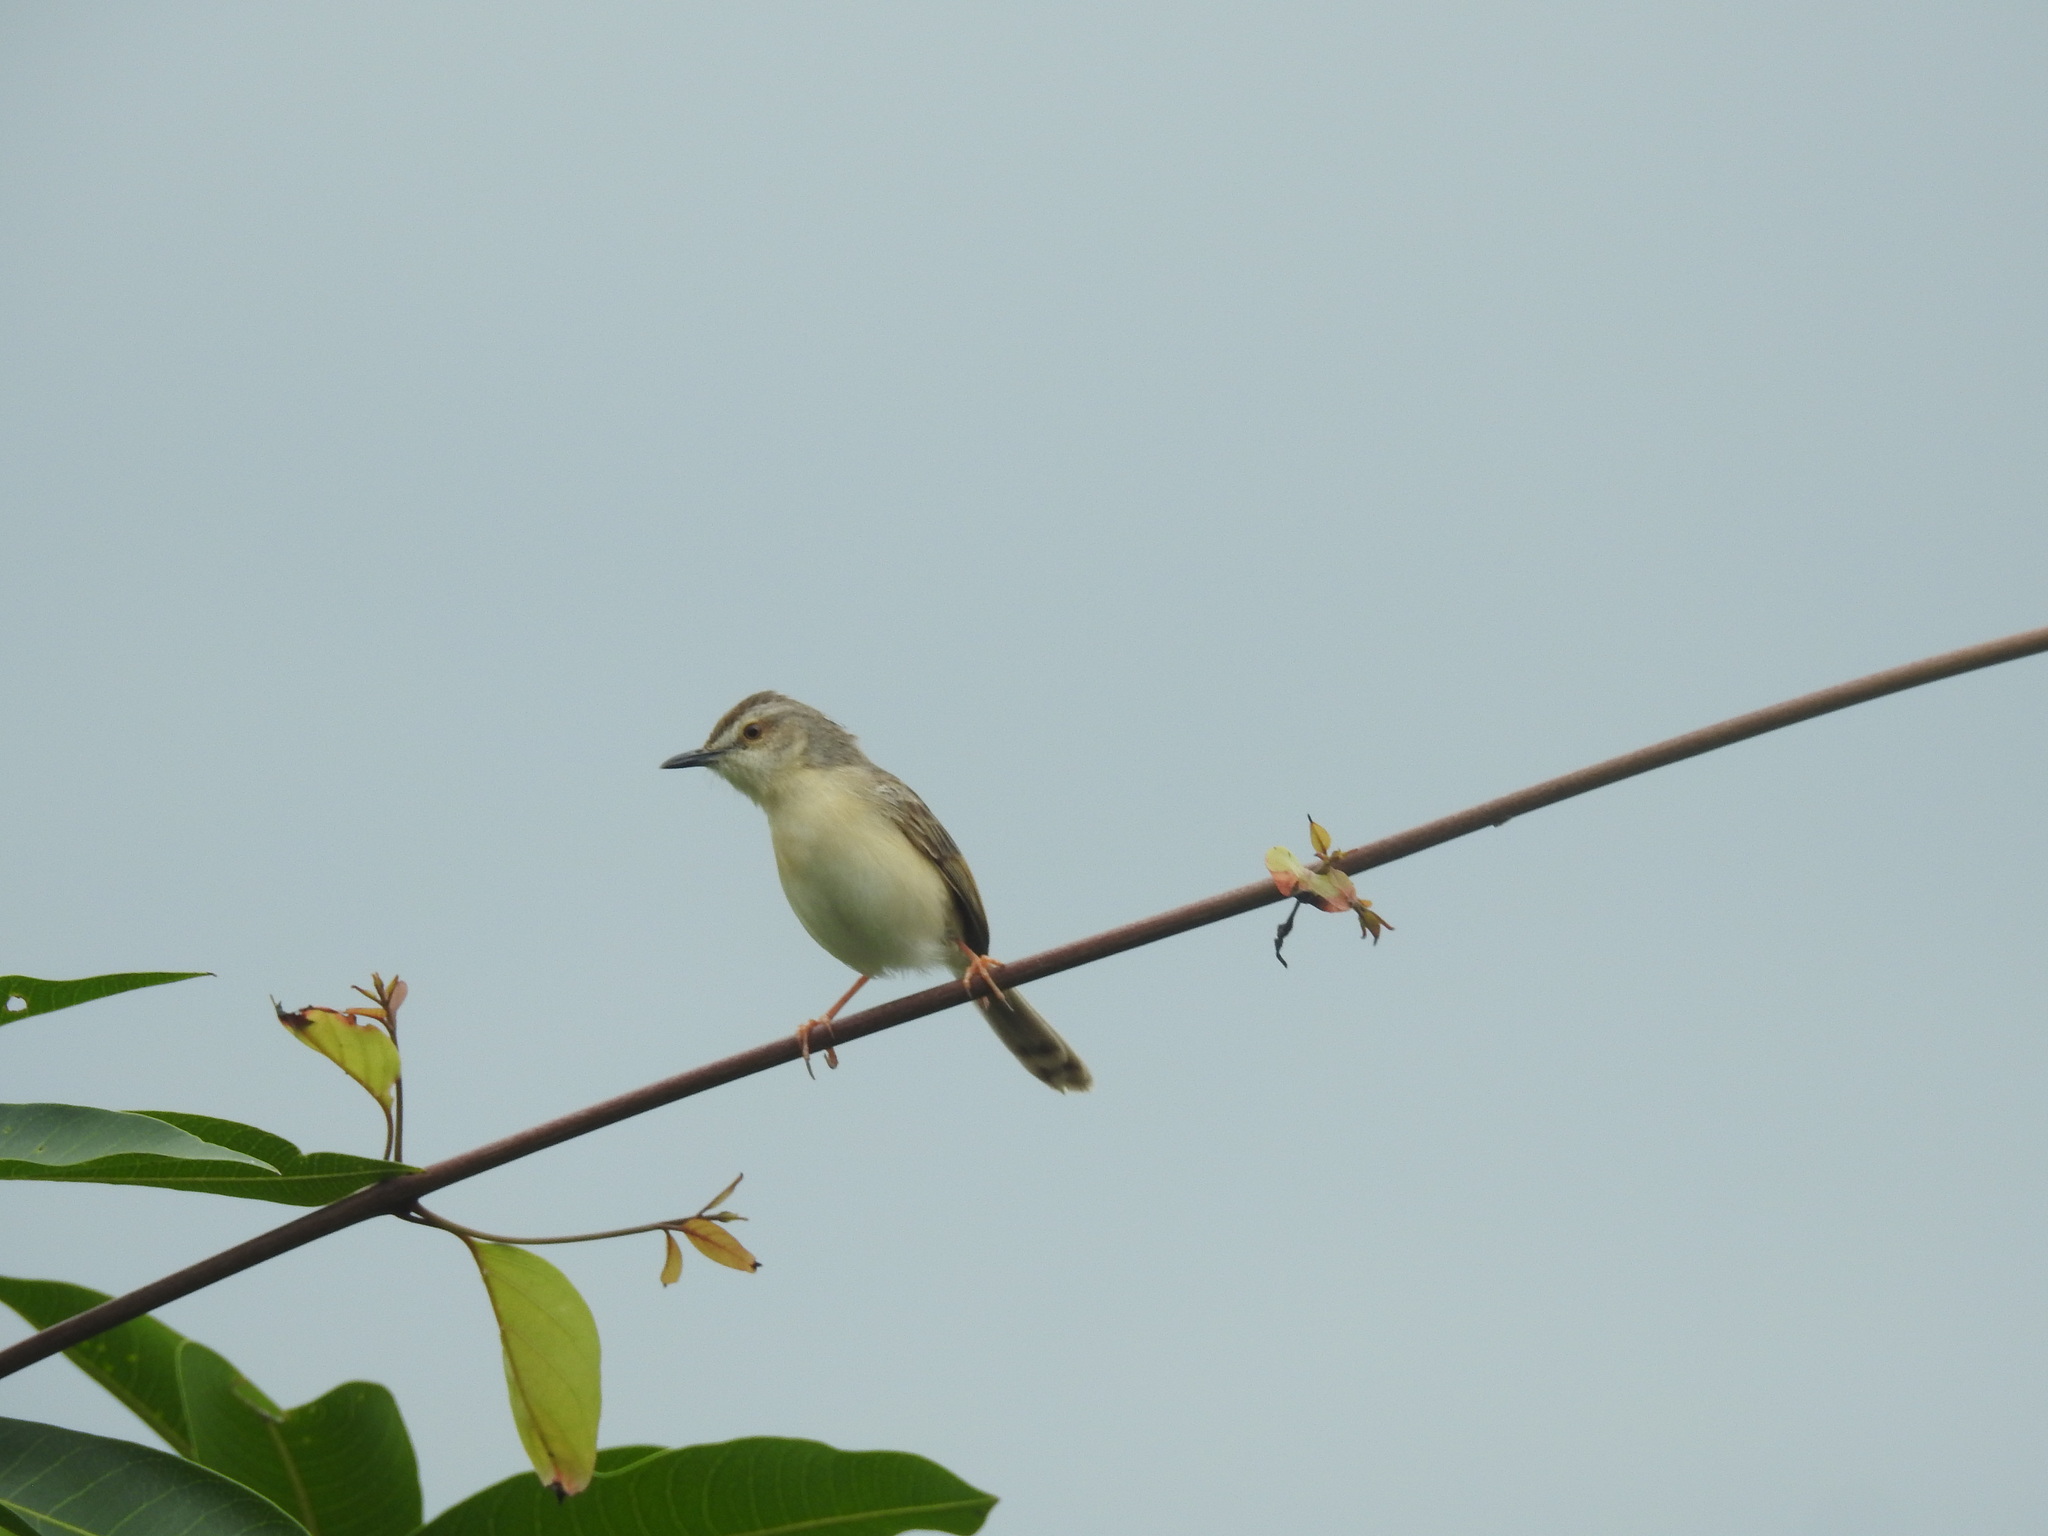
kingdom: Animalia
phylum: Chordata
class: Aves
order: Passeriformes
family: Cisticolidae
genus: Prinia
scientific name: Prinia inornata
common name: Plain prinia
